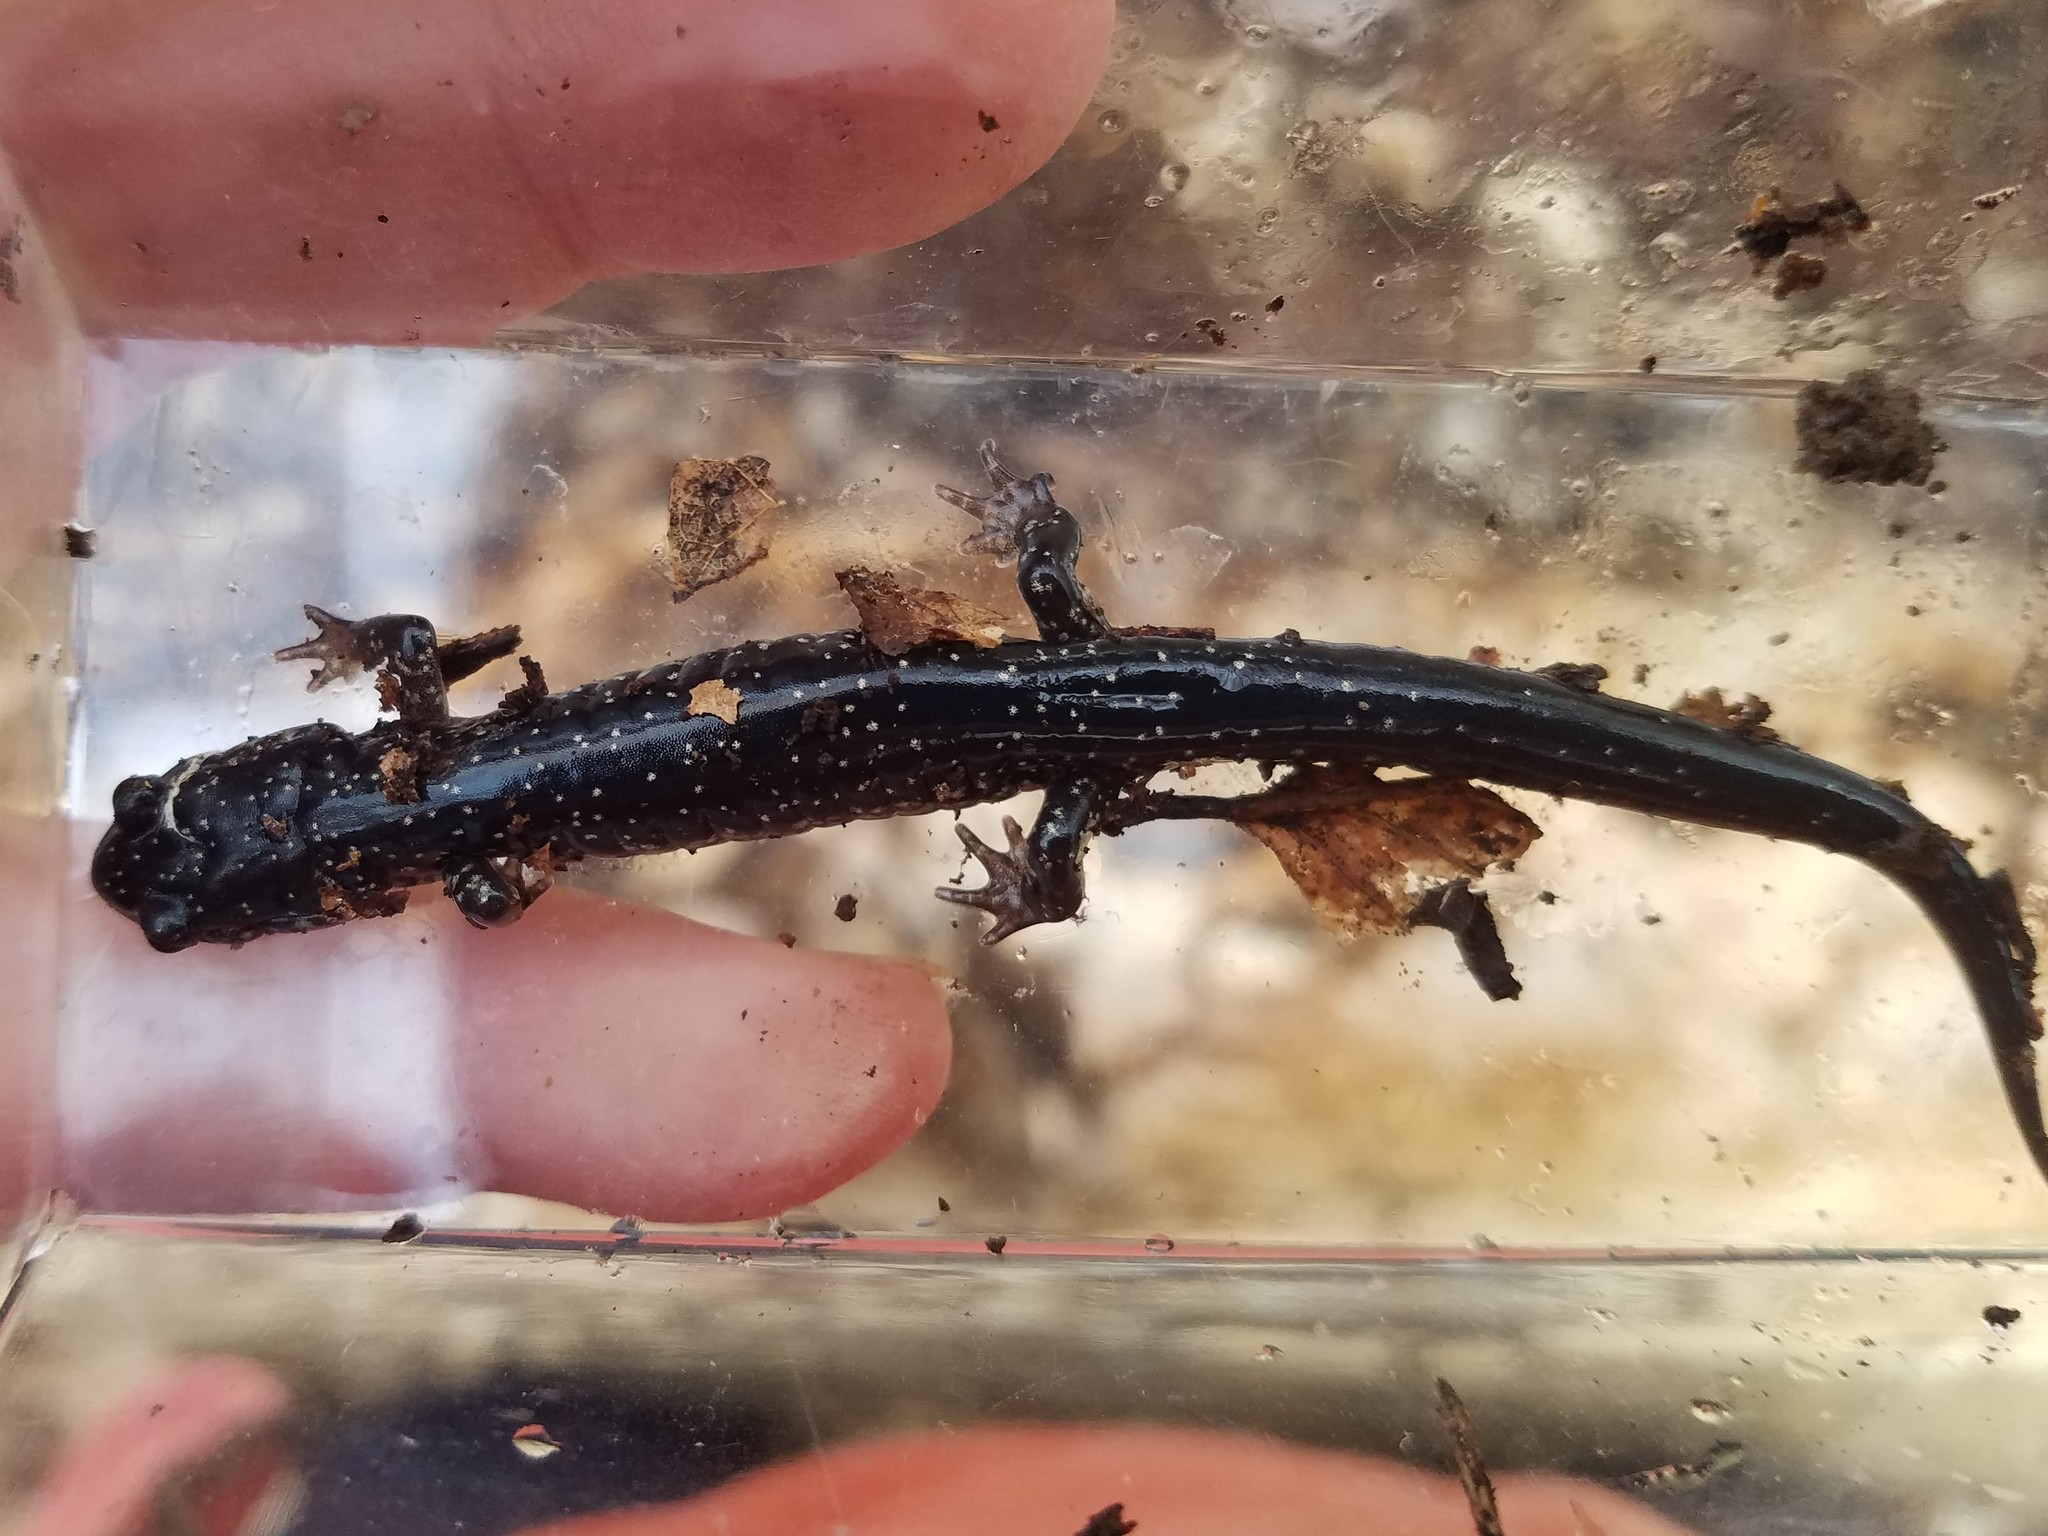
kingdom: Animalia
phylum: Chordata
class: Amphibia
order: Caudata
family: Plethodontidae
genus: Plethodon
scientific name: Plethodon glutinosus
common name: Northern slimy salamander
